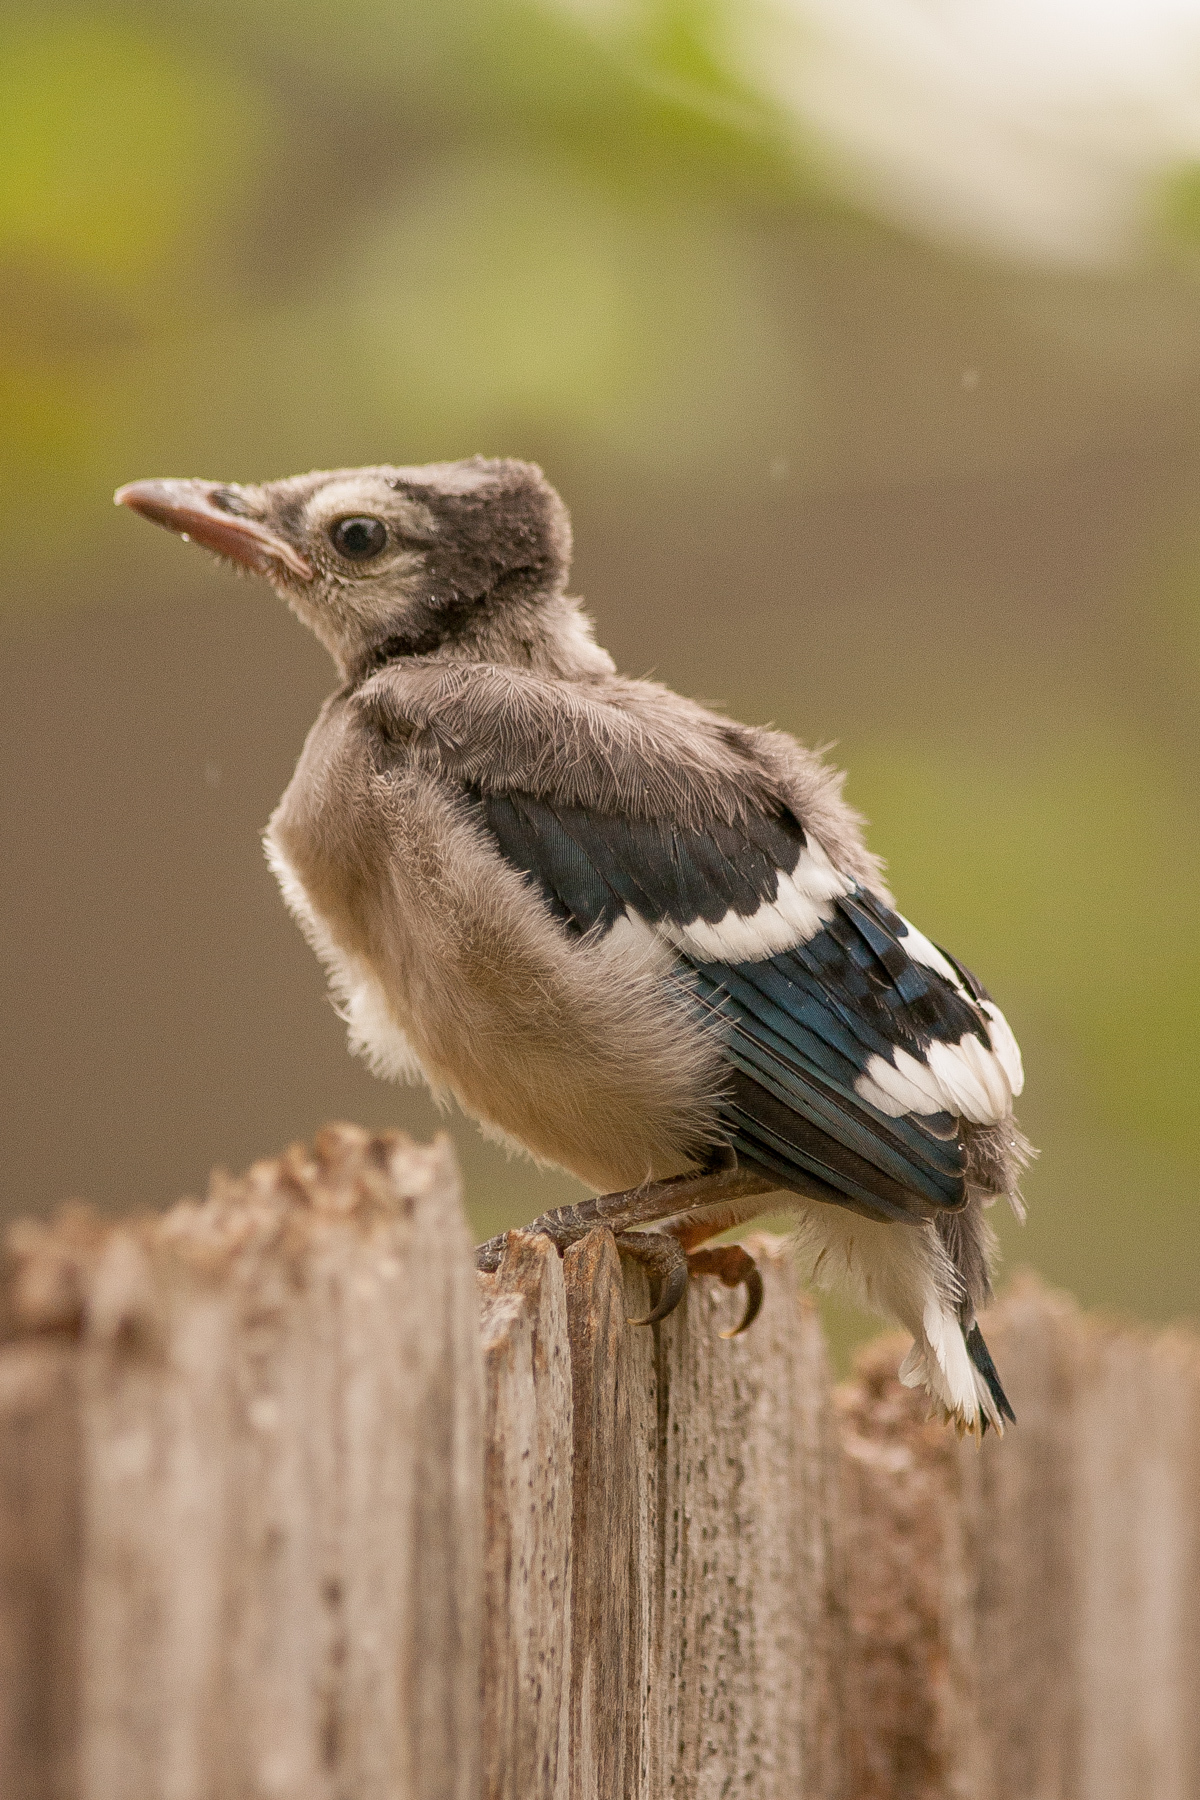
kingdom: Animalia
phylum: Chordata
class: Aves
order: Passeriformes
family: Corvidae
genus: Cyanocitta
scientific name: Cyanocitta cristata
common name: Blue jay
